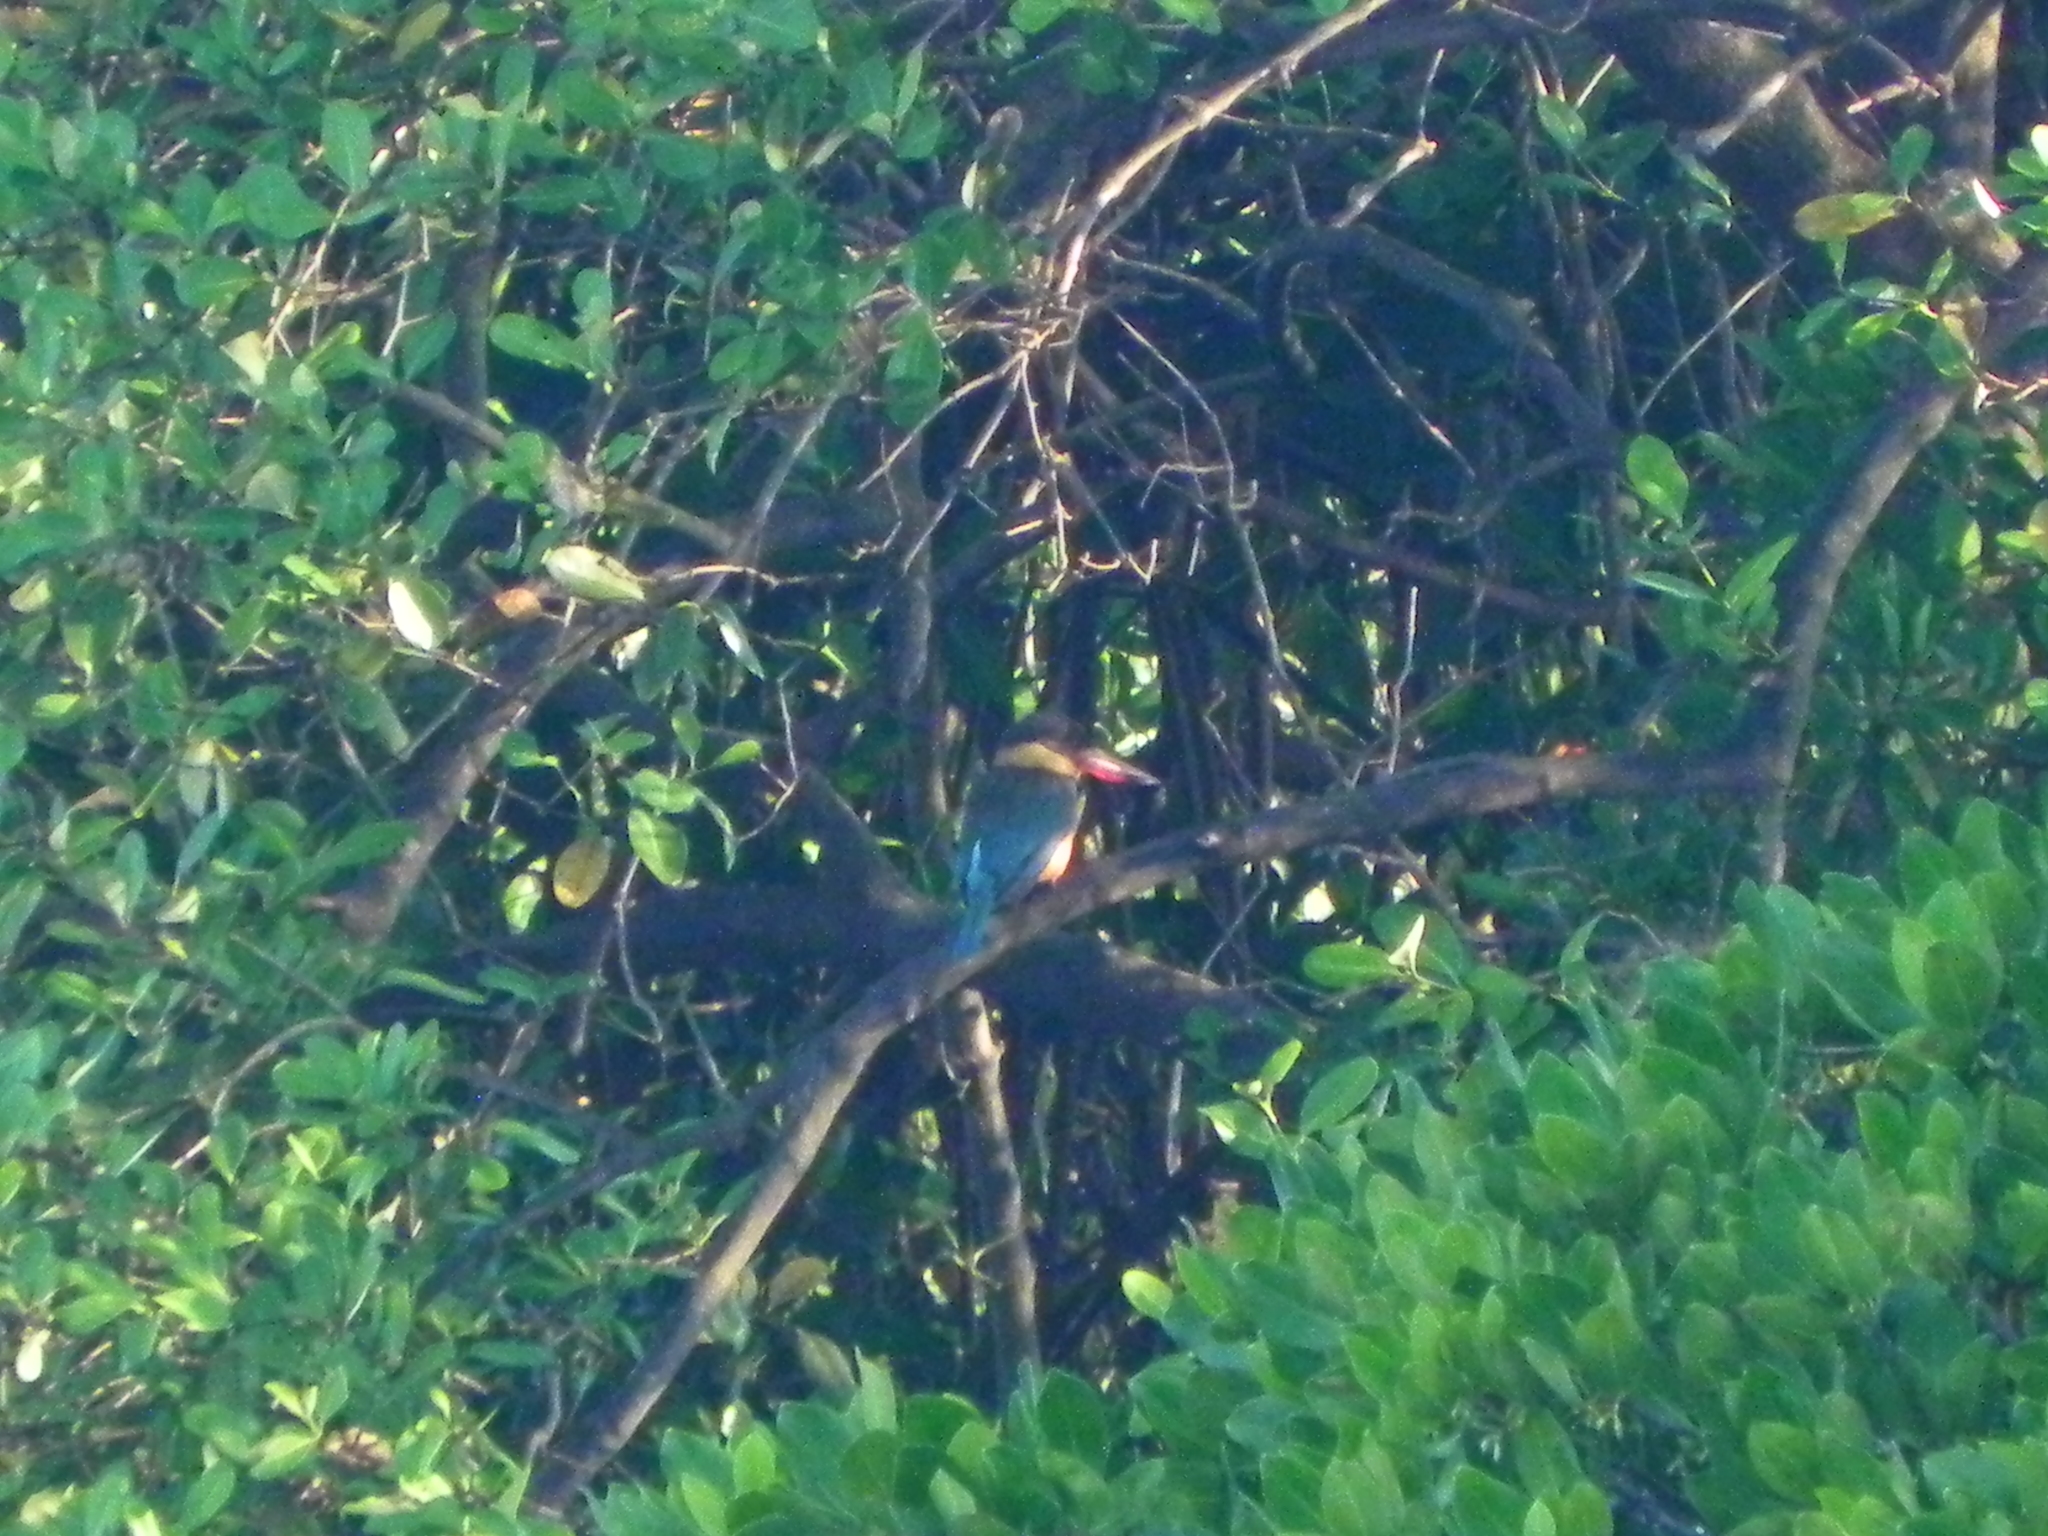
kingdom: Animalia
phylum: Chordata
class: Aves
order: Coraciiformes
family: Alcedinidae
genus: Pelargopsis
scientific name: Pelargopsis capensis
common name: Stork-billed kingfisher
